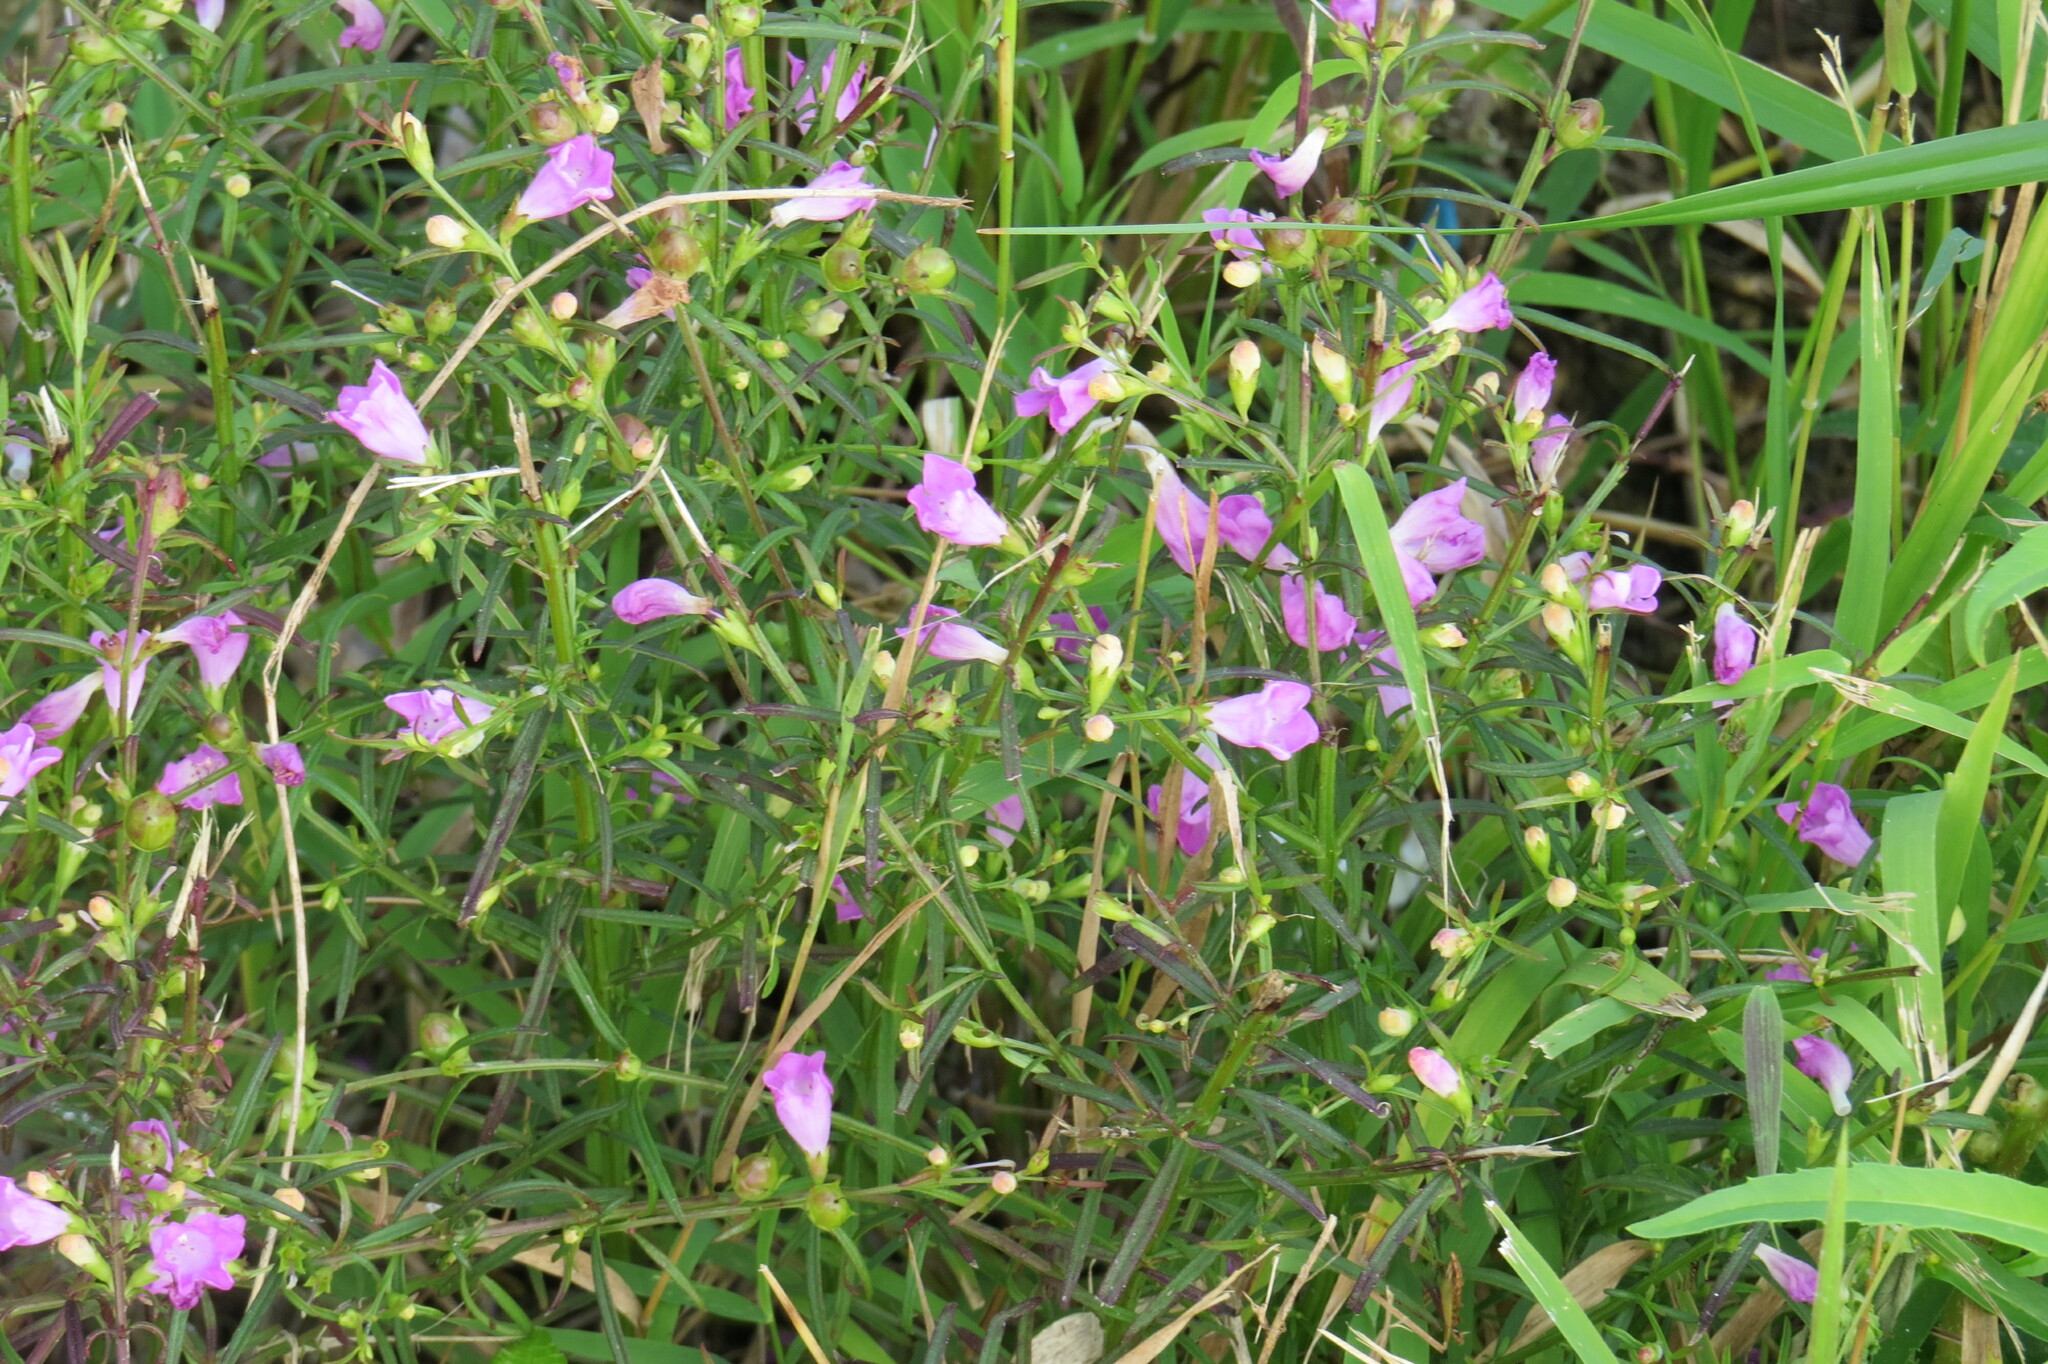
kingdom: Plantae
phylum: Tracheophyta
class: Magnoliopsida
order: Lamiales
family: Orobanchaceae
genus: Agalinis
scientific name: Agalinis purpurea
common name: Purple false foxglove
